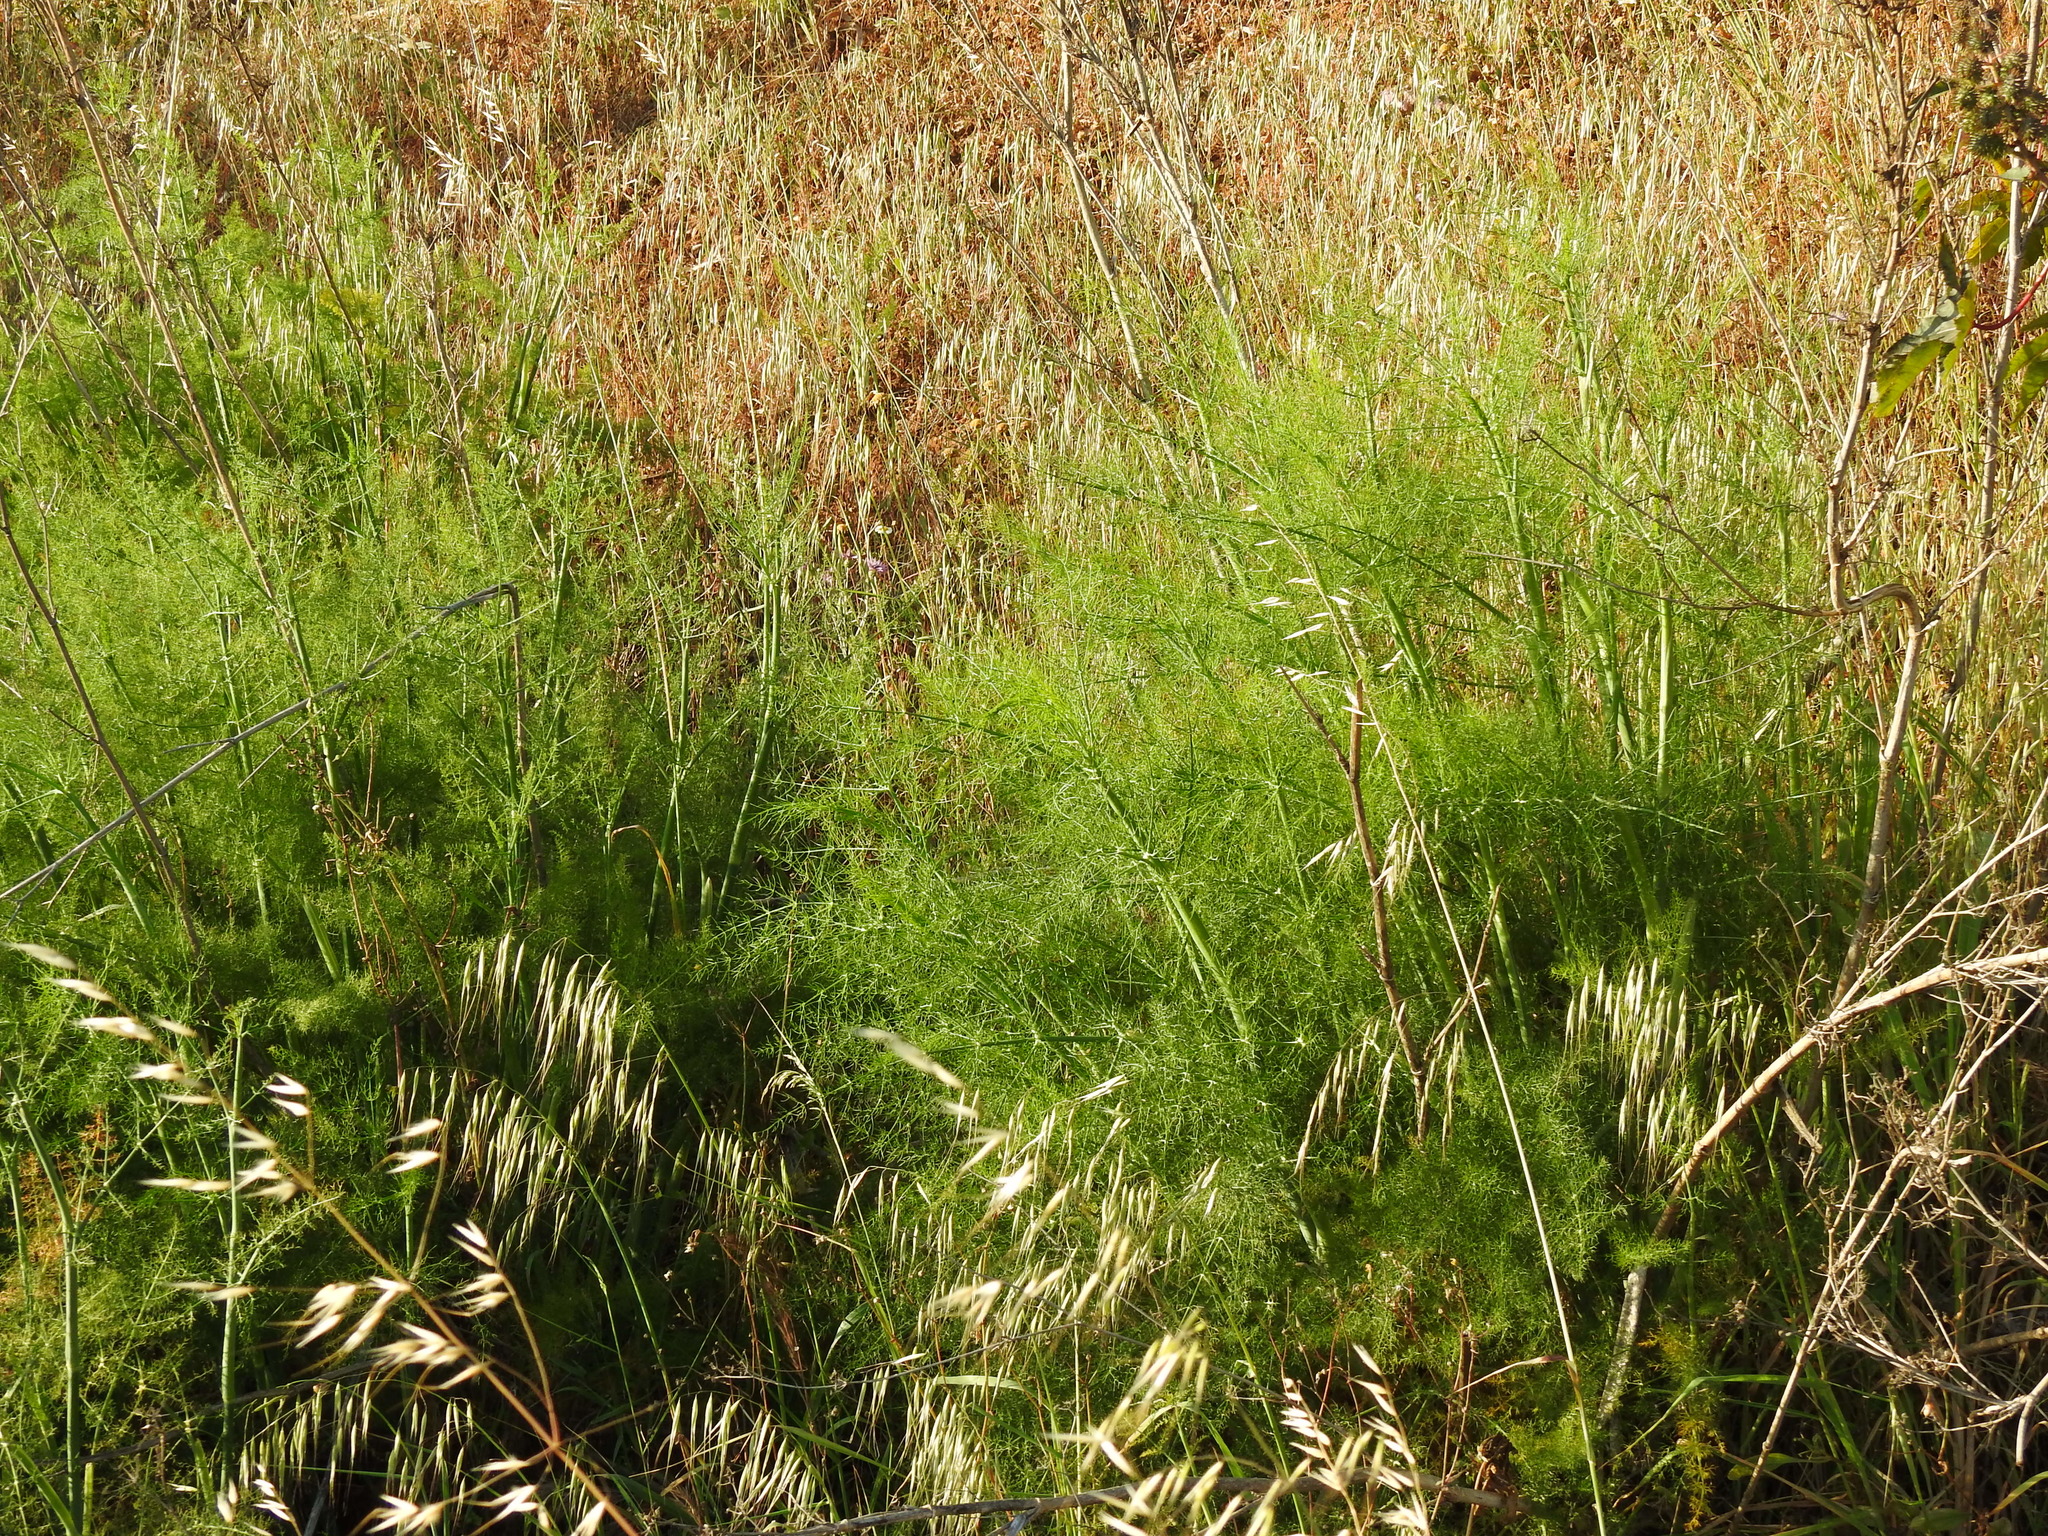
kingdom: Plantae
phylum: Tracheophyta
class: Magnoliopsida
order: Apiales
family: Apiaceae
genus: Foeniculum
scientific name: Foeniculum vulgare
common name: Fennel
